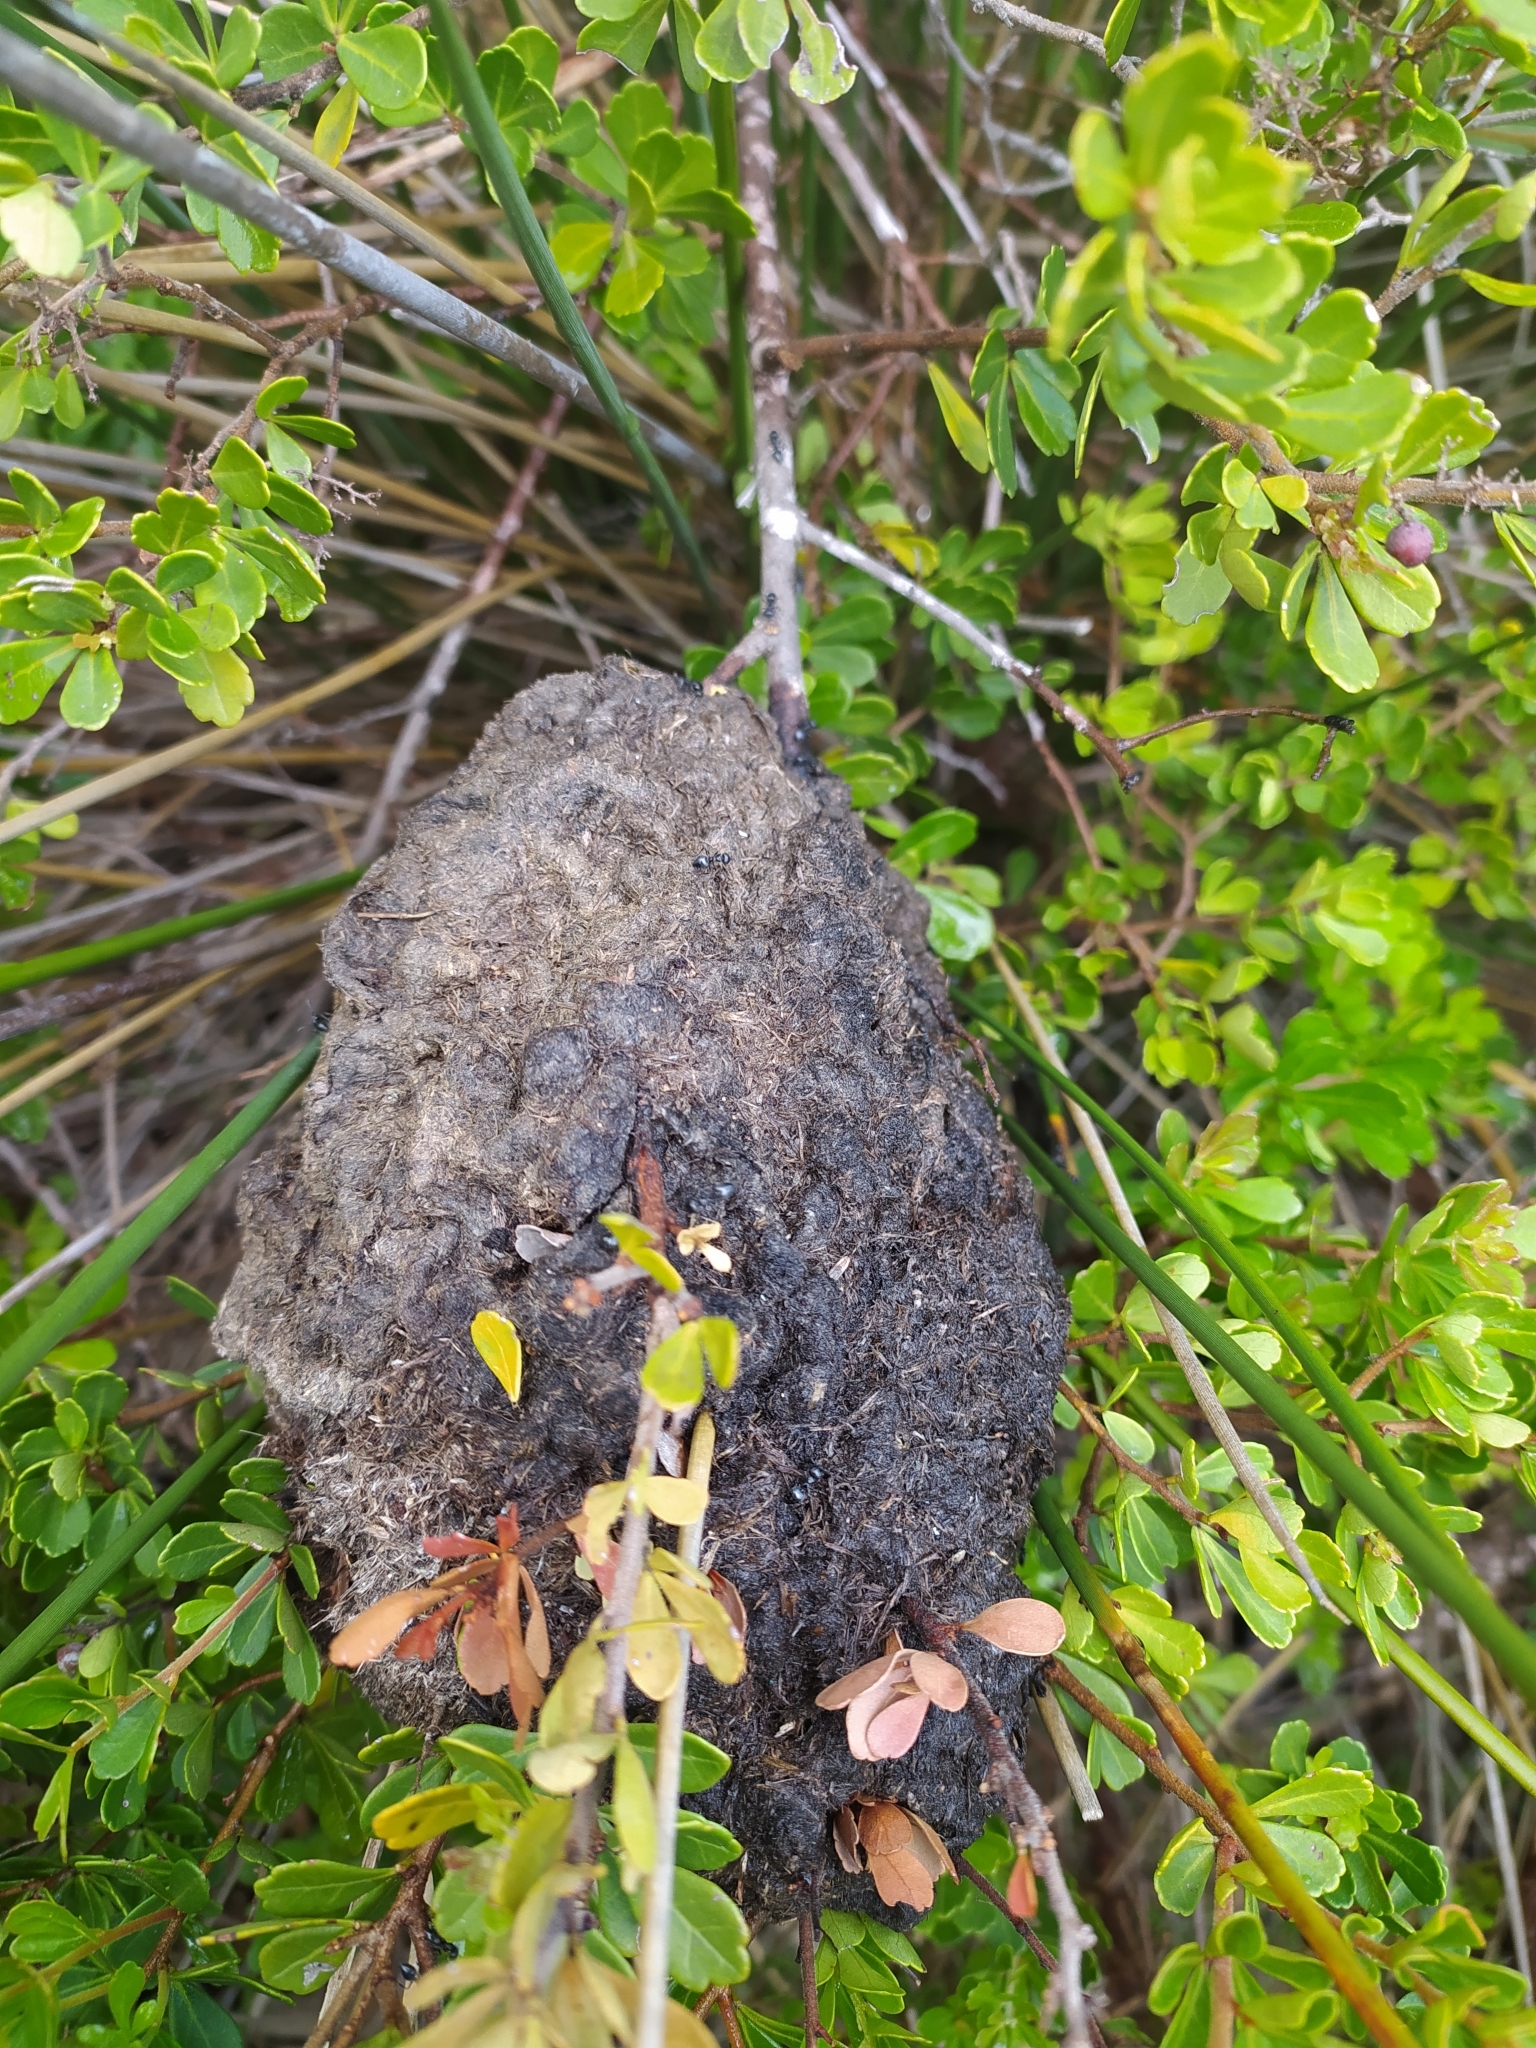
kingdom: Animalia
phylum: Arthropoda
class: Insecta
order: Hymenoptera
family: Formicidae
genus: Crematogaster
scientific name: Crematogaster peringueyi
